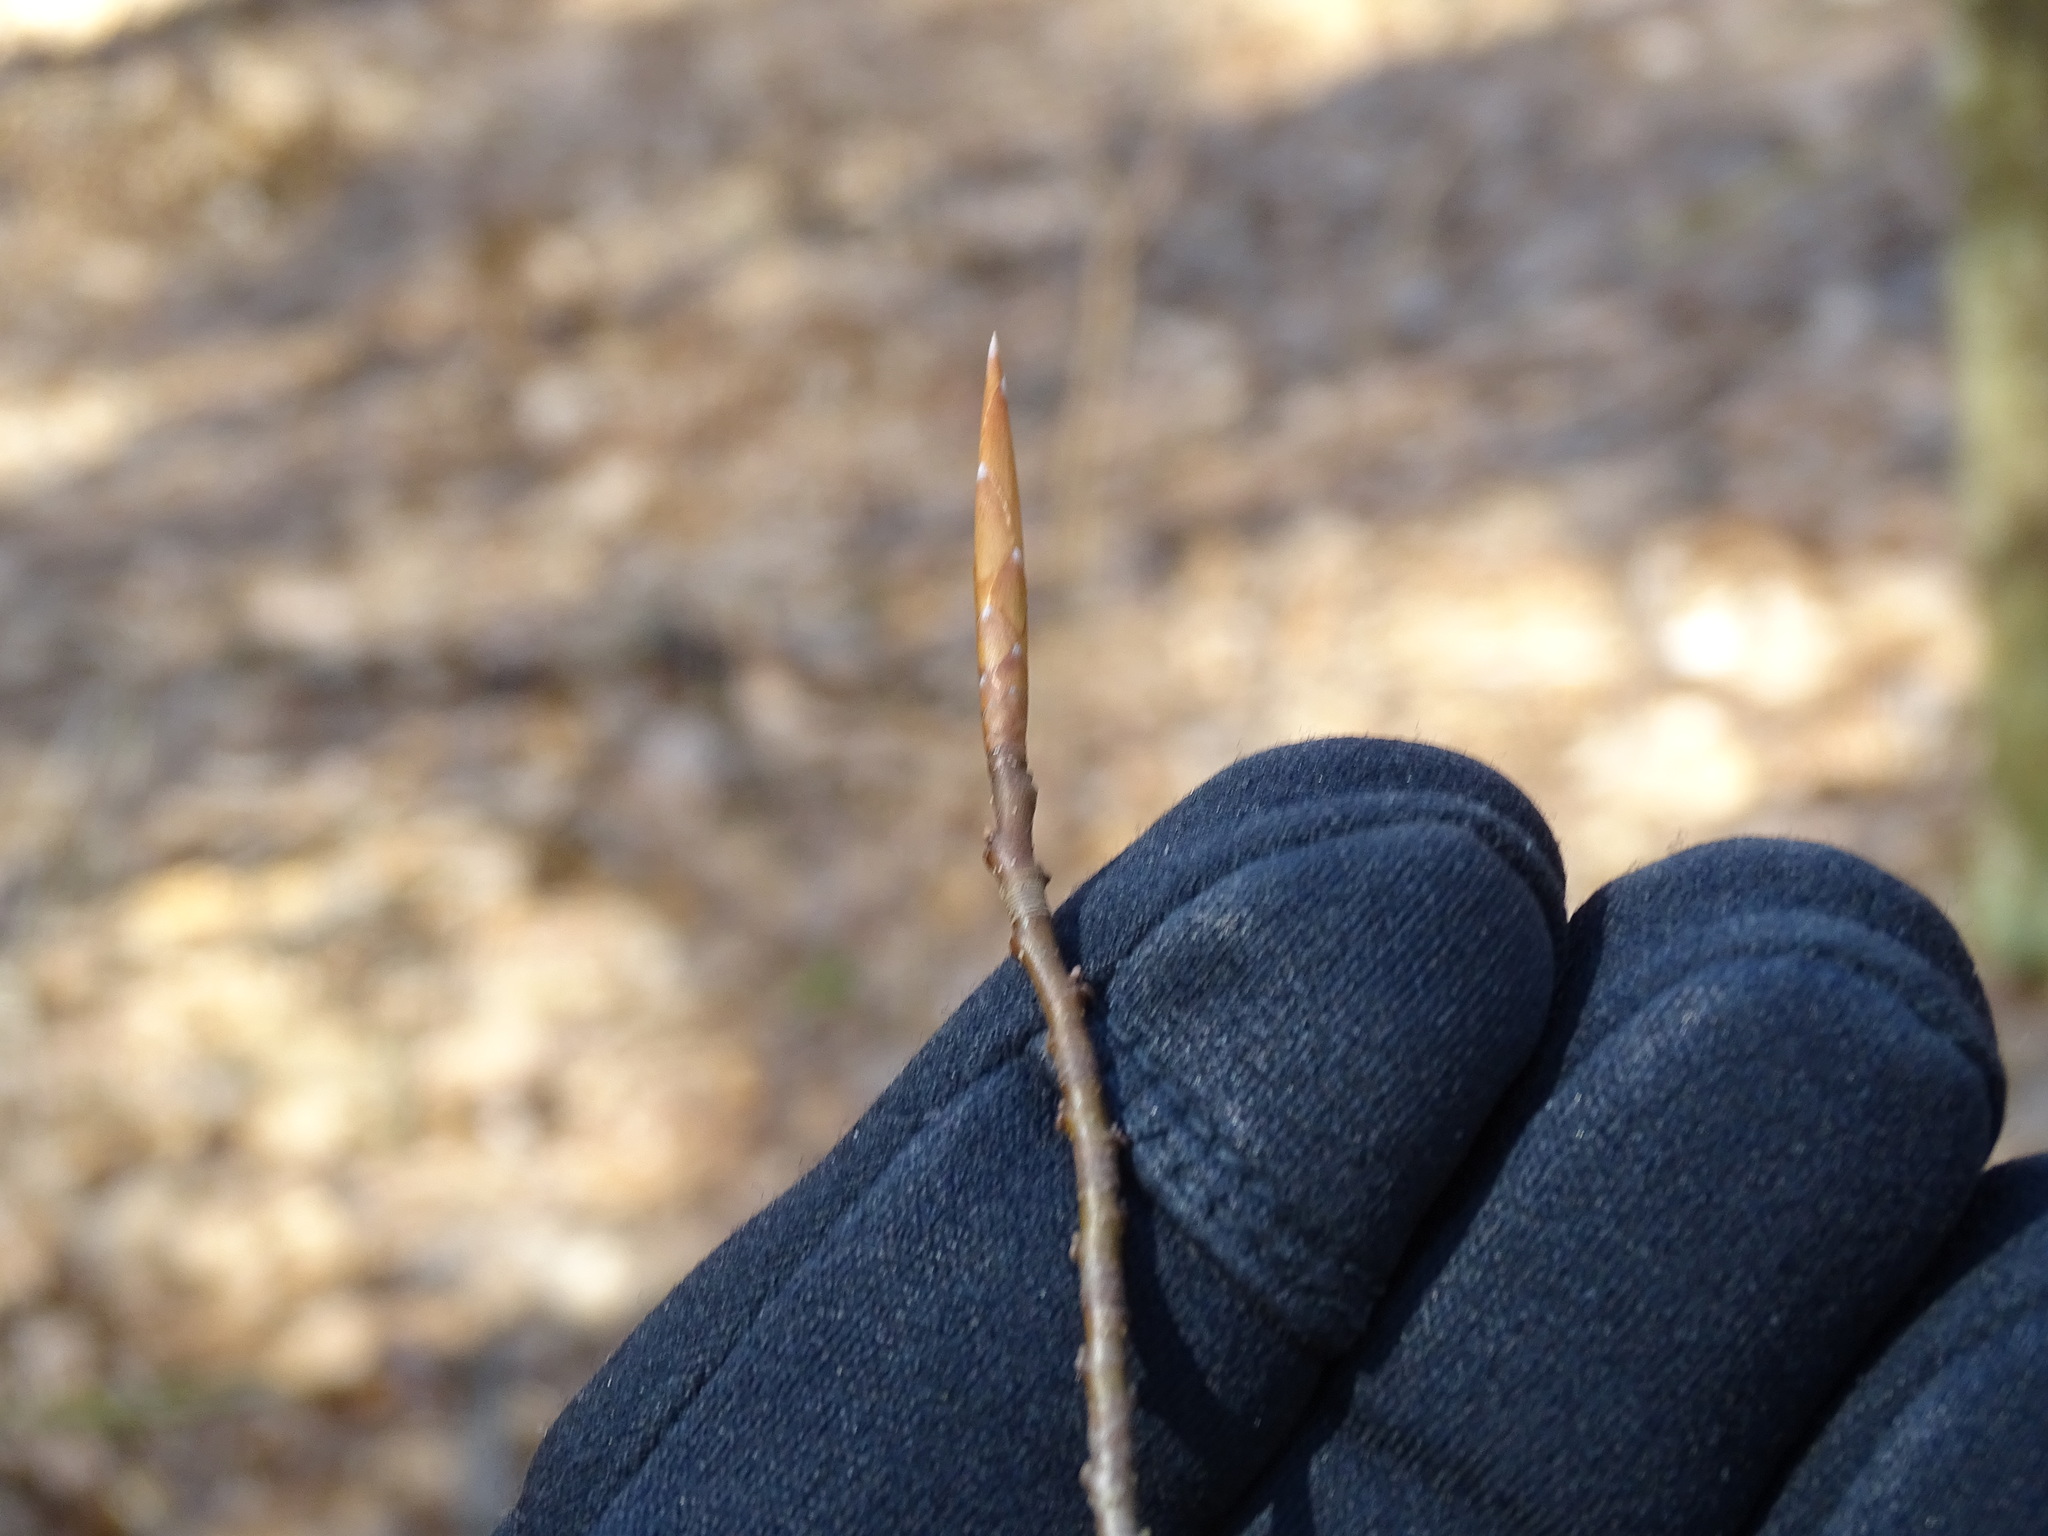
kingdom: Plantae
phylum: Tracheophyta
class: Magnoliopsida
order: Fagales
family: Fagaceae
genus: Fagus
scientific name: Fagus grandifolia
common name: American beech
